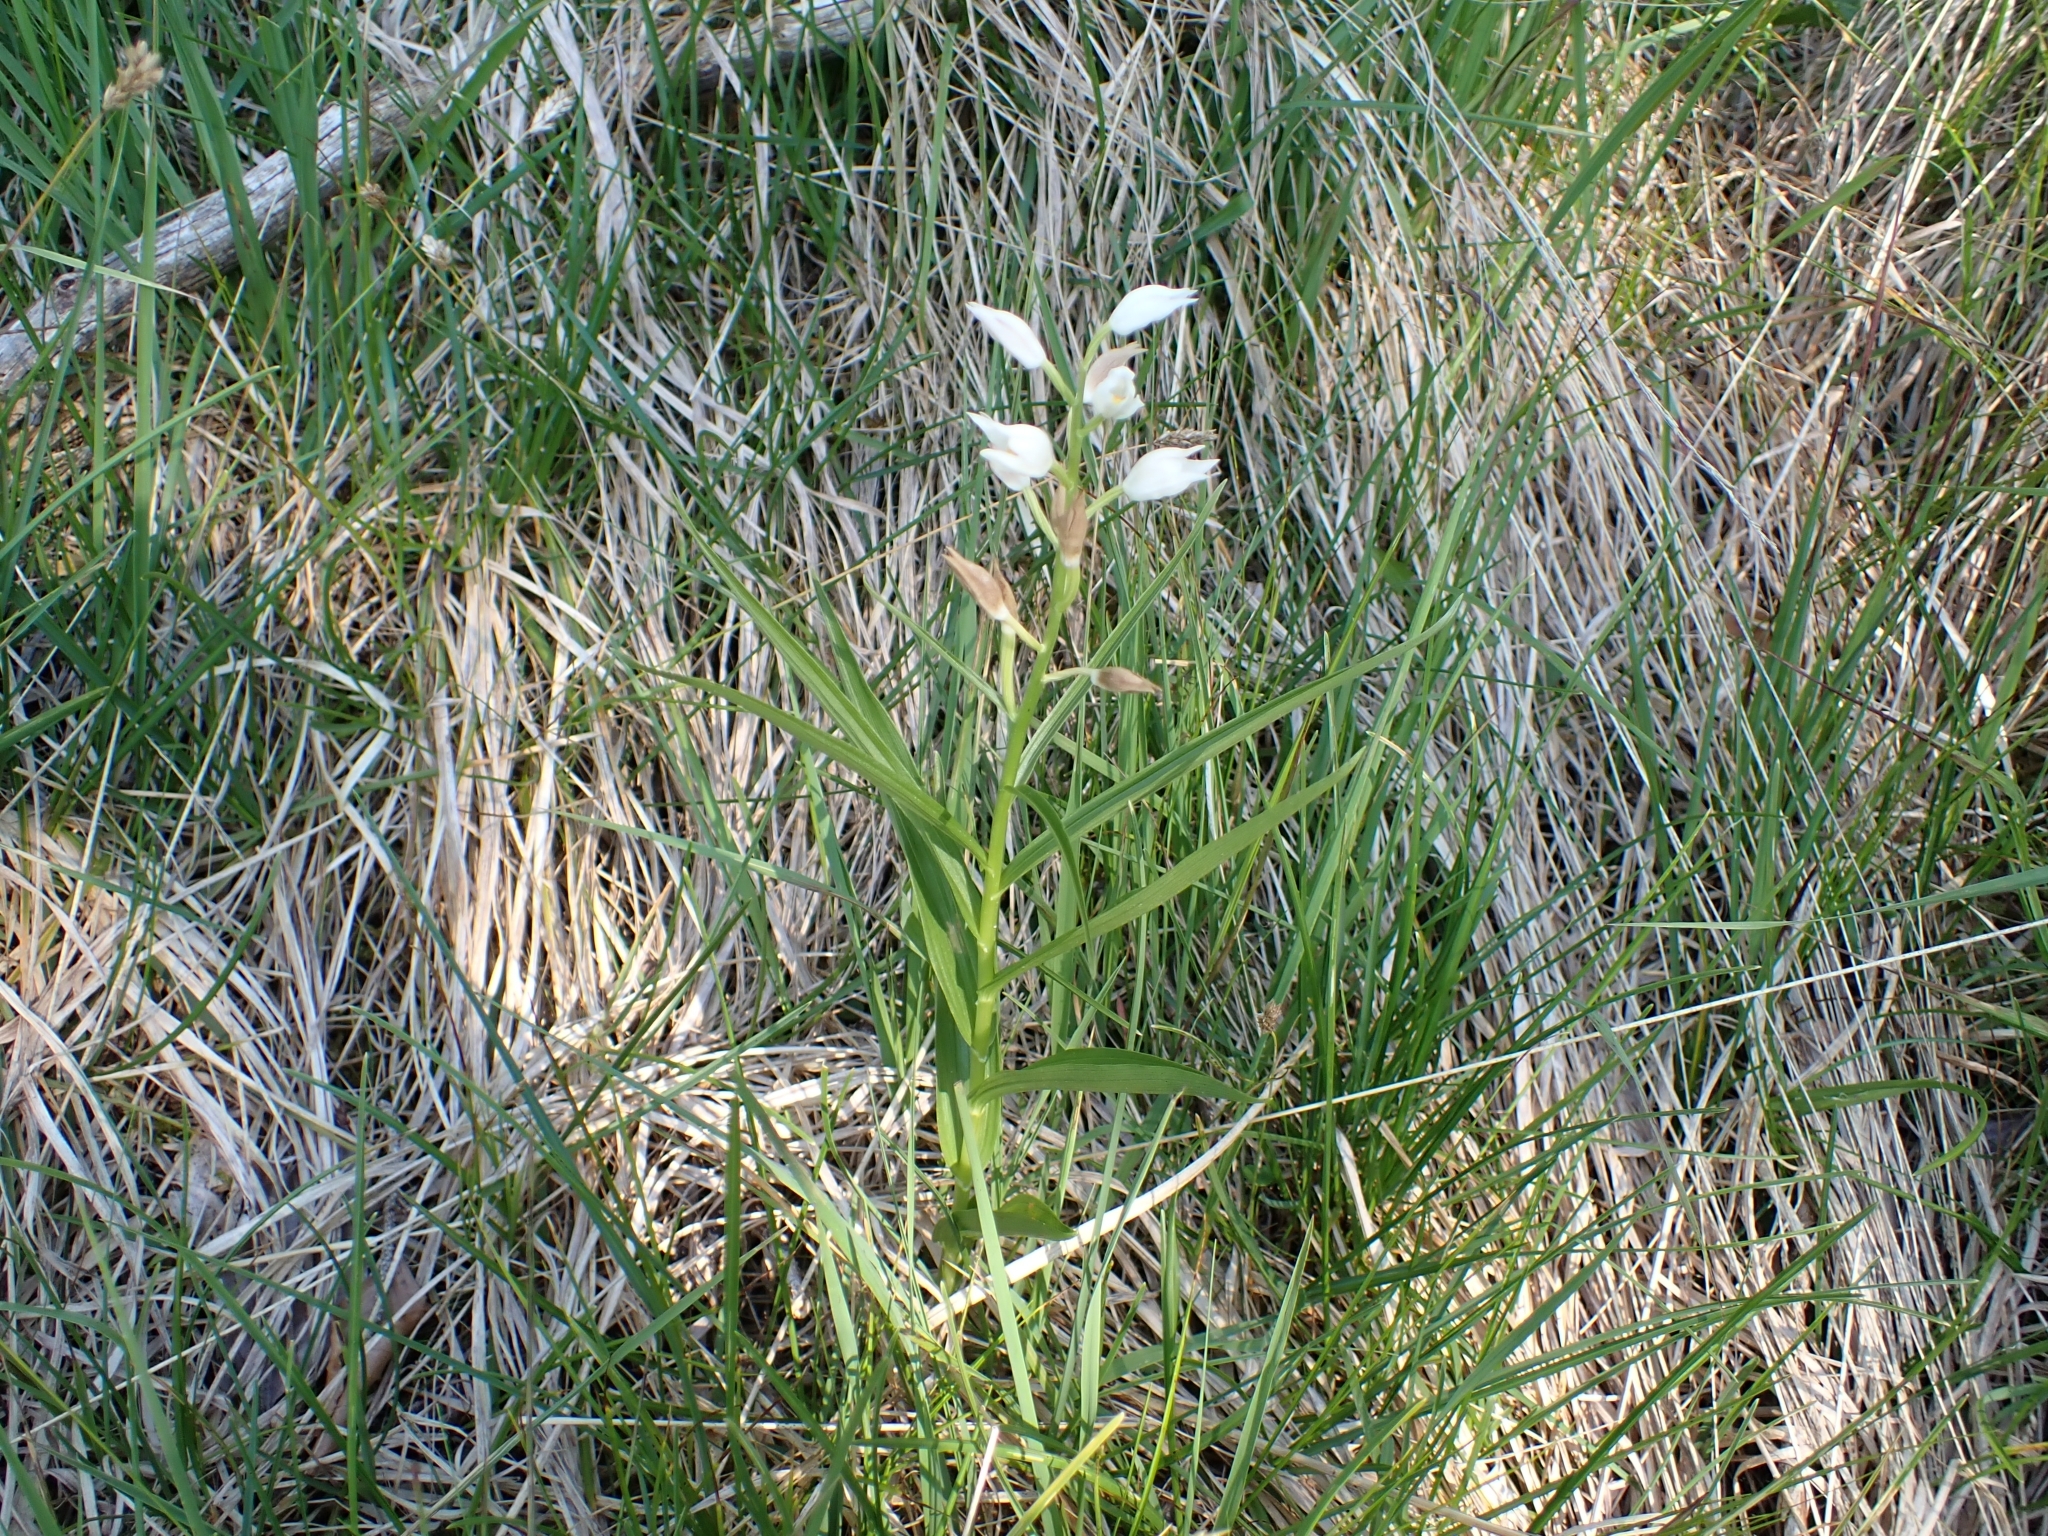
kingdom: Plantae
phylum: Tracheophyta
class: Liliopsida
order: Asparagales
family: Orchidaceae
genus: Cephalanthera
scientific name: Cephalanthera longifolia
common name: Narrow-leaved helleborine
